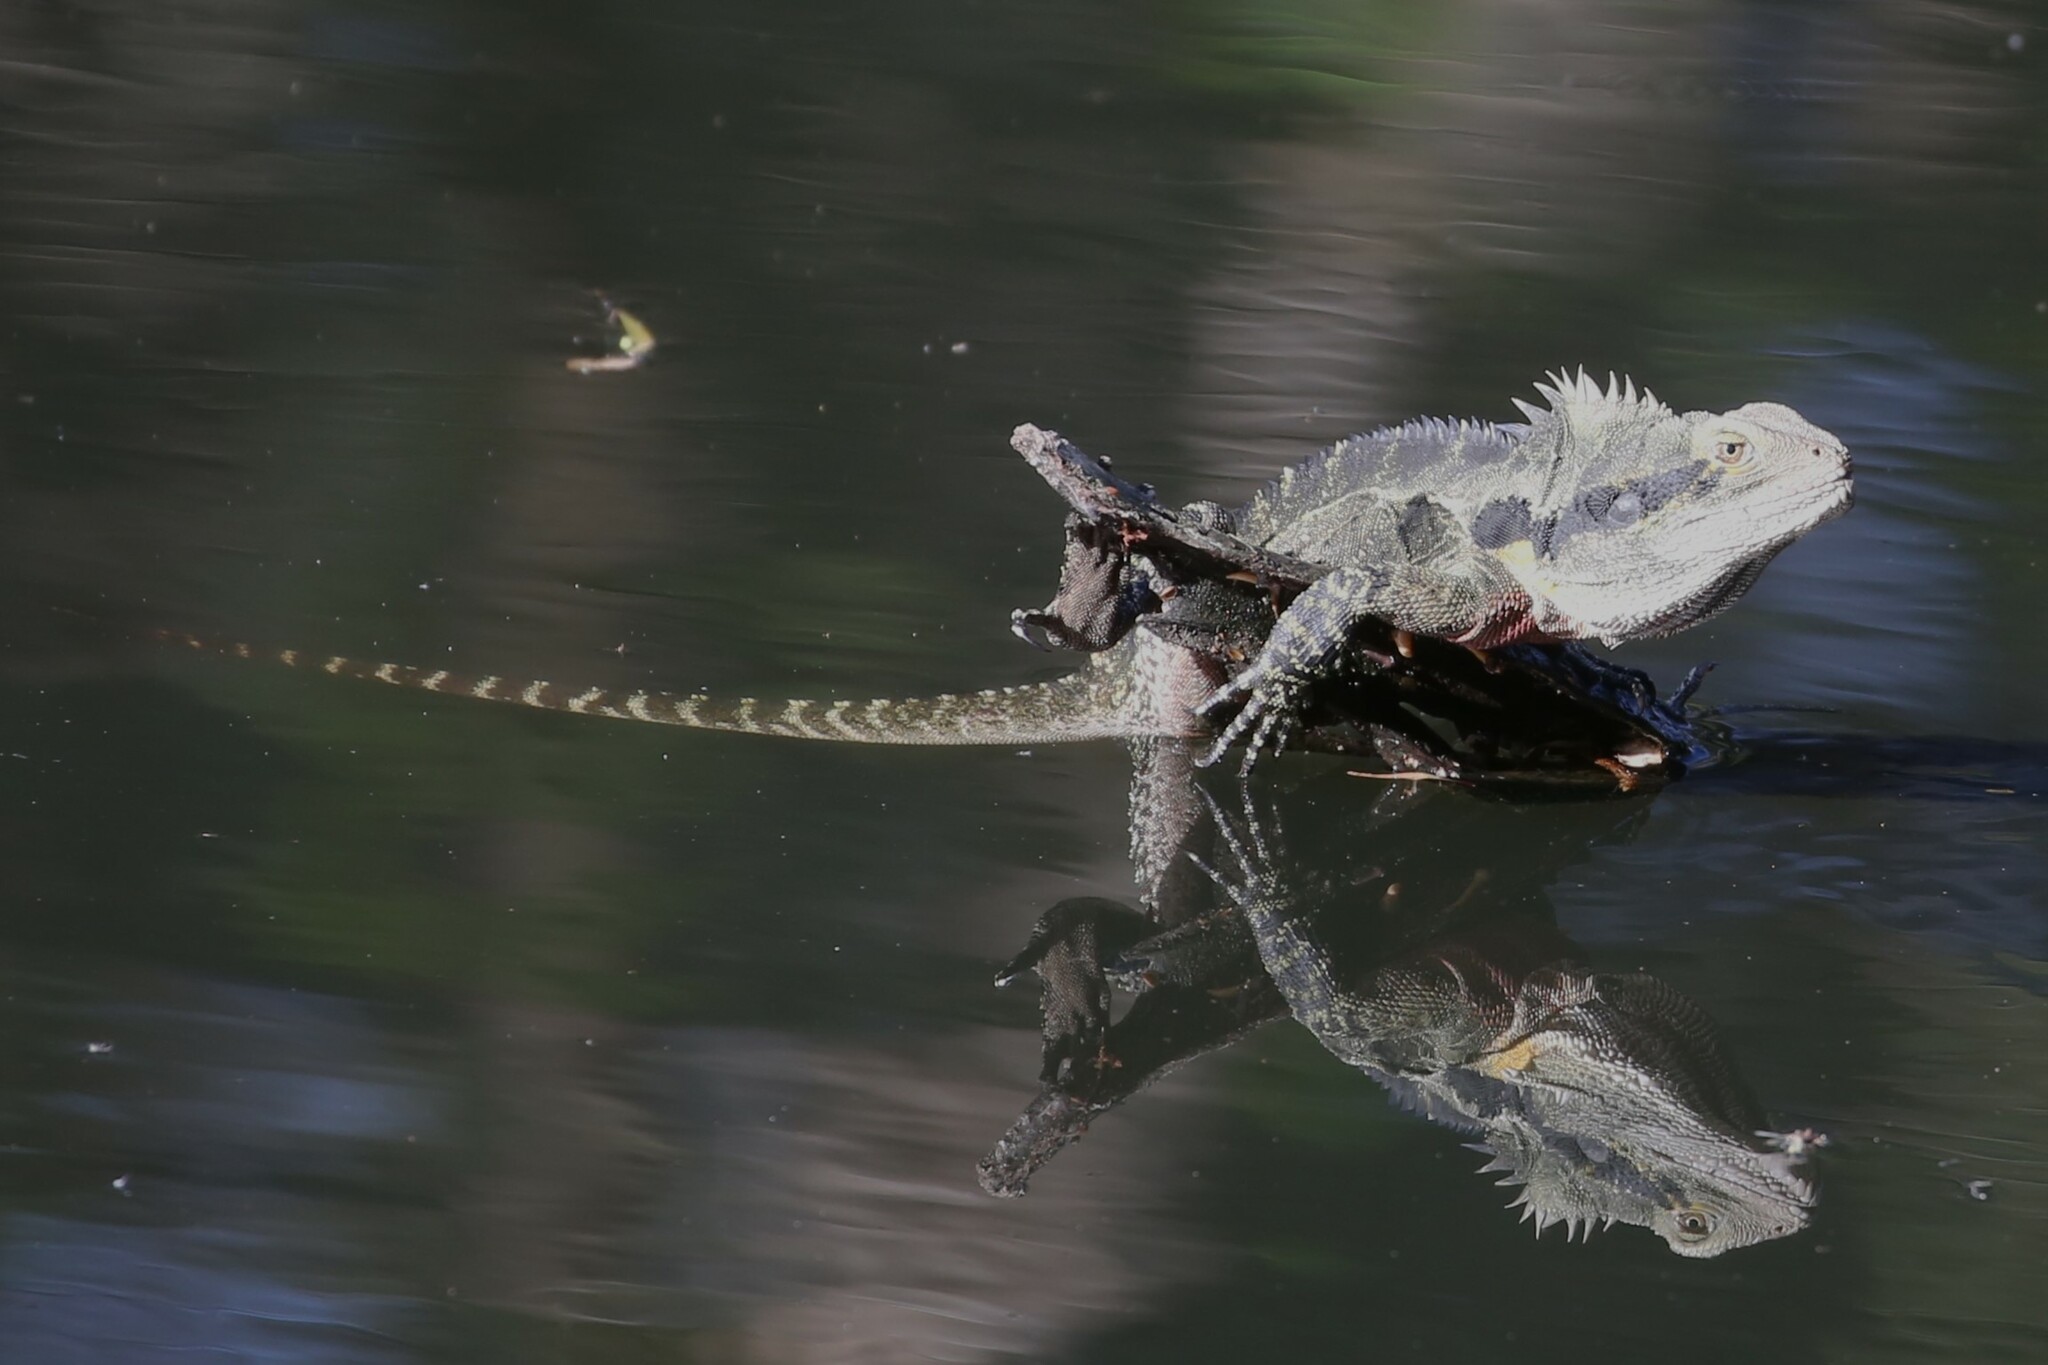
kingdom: Animalia
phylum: Chordata
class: Squamata
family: Agamidae
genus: Intellagama
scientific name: Intellagama lesueurii
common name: Eastern water dragon
